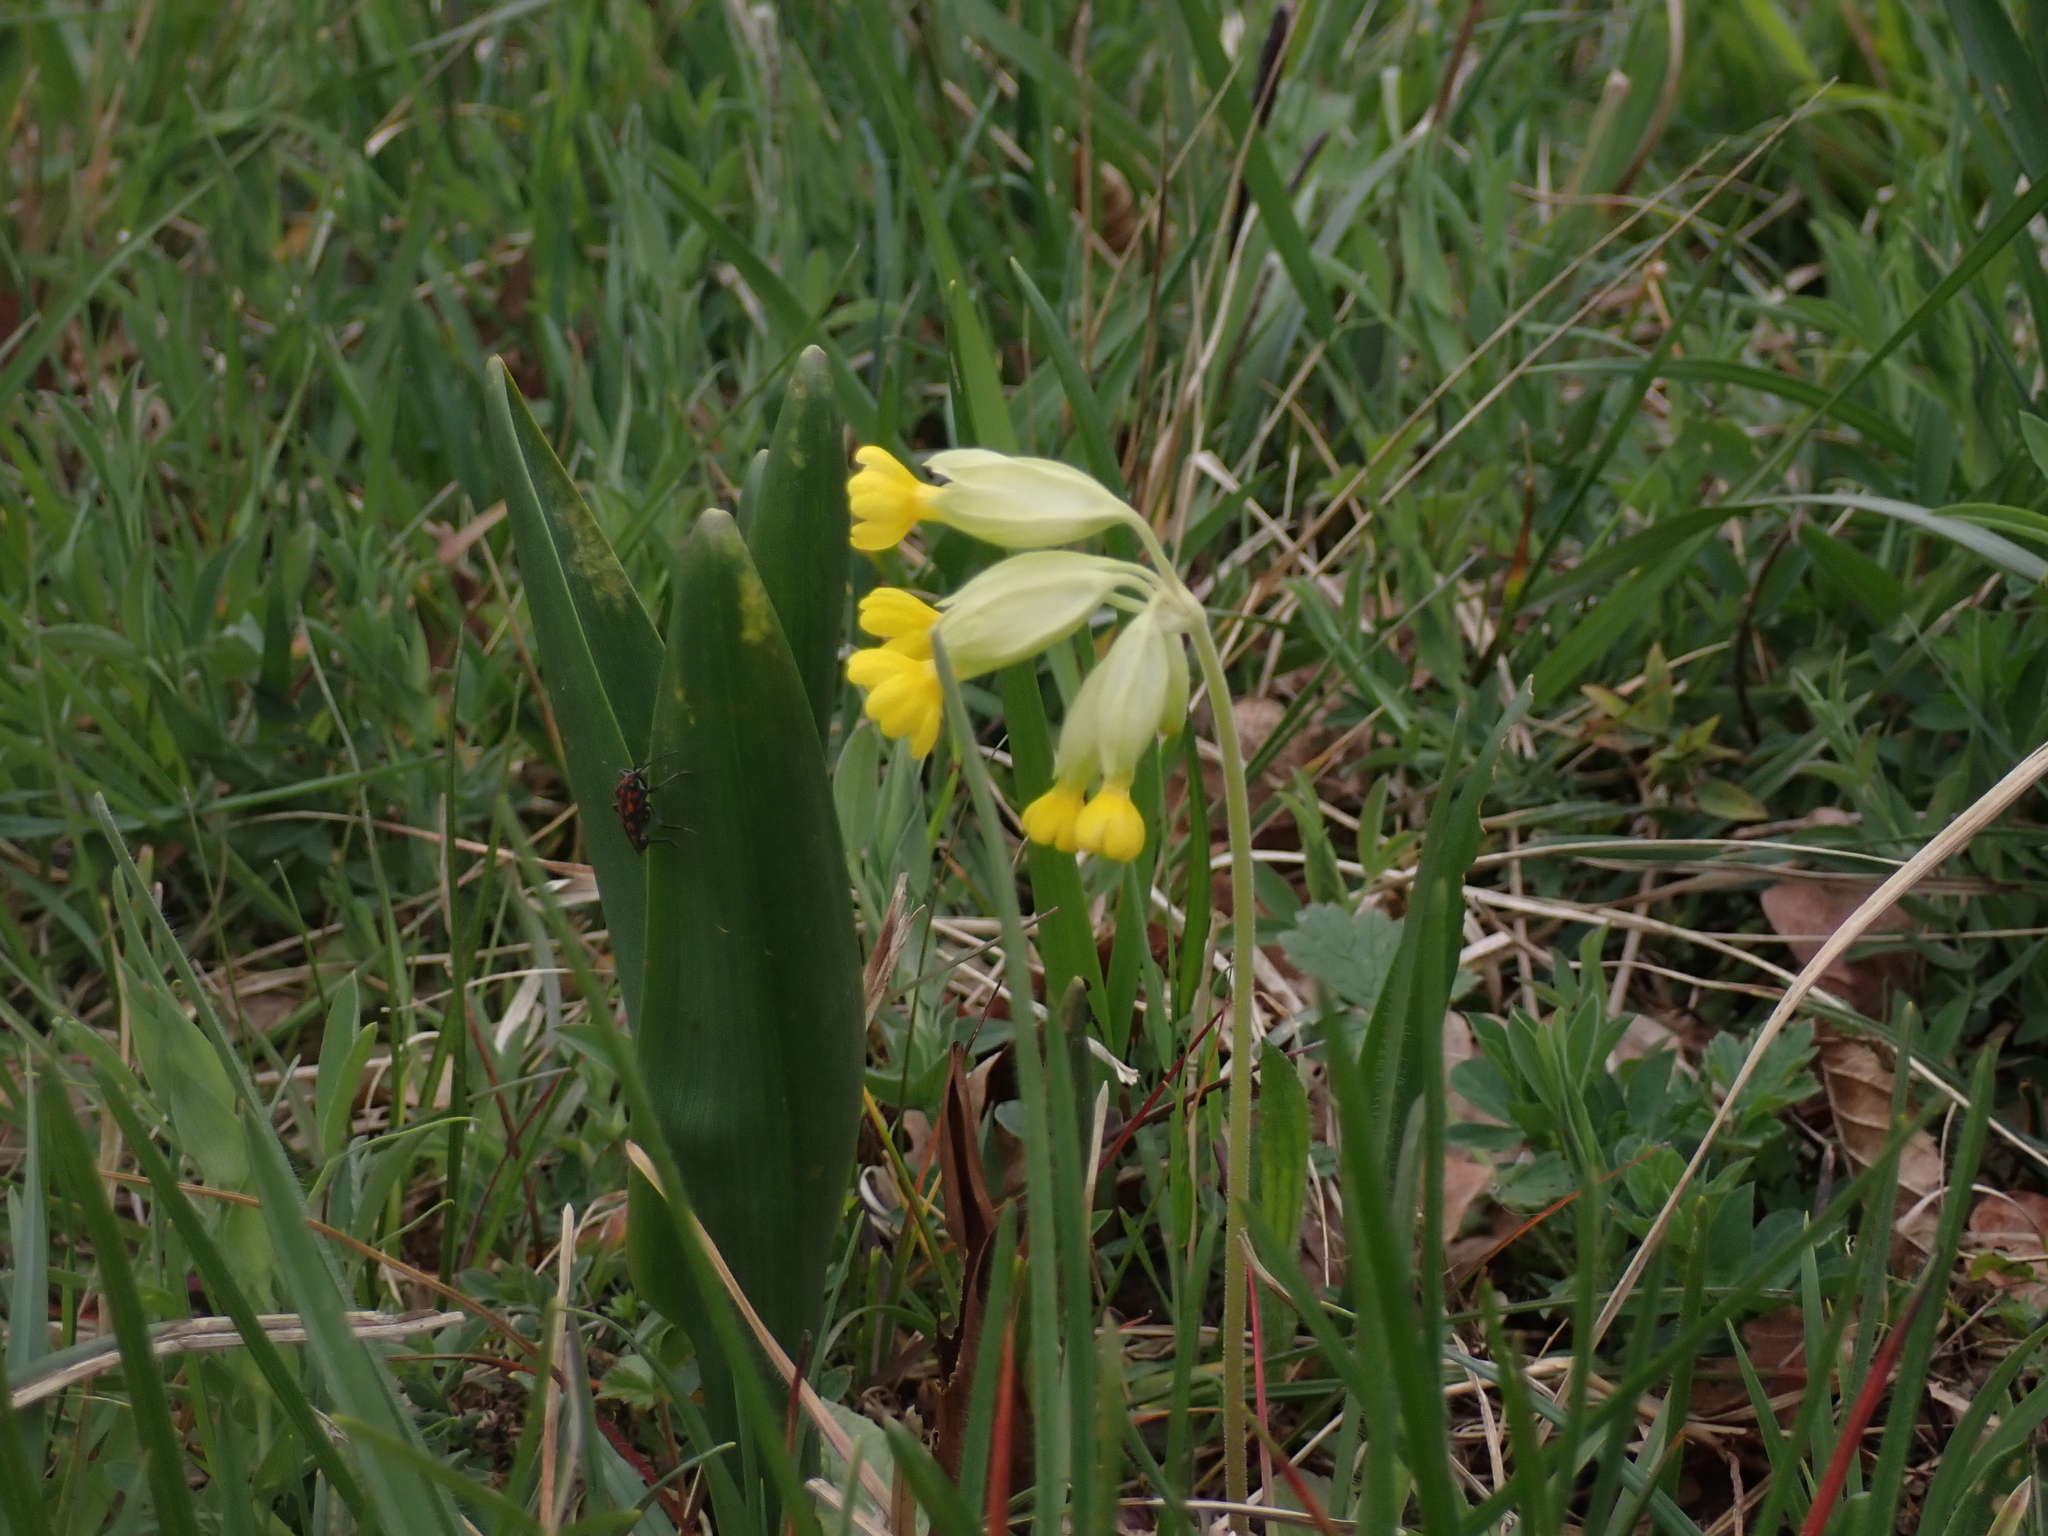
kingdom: Plantae
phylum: Tracheophyta
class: Magnoliopsida
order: Ericales
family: Primulaceae
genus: Primula
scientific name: Primula veris
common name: Cowslip
